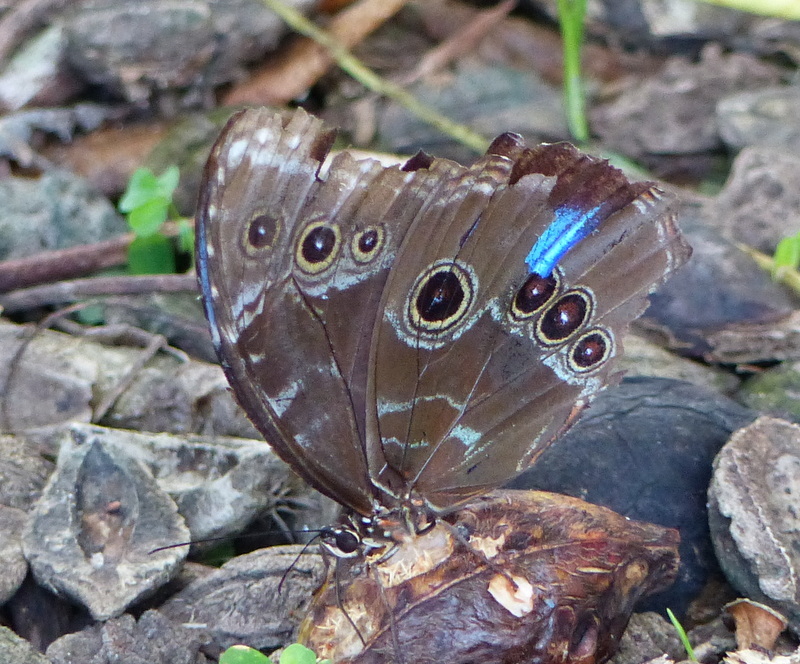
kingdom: Animalia
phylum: Arthropoda
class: Insecta
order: Lepidoptera
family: Nymphalidae
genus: Morpho
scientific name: Morpho helenor
